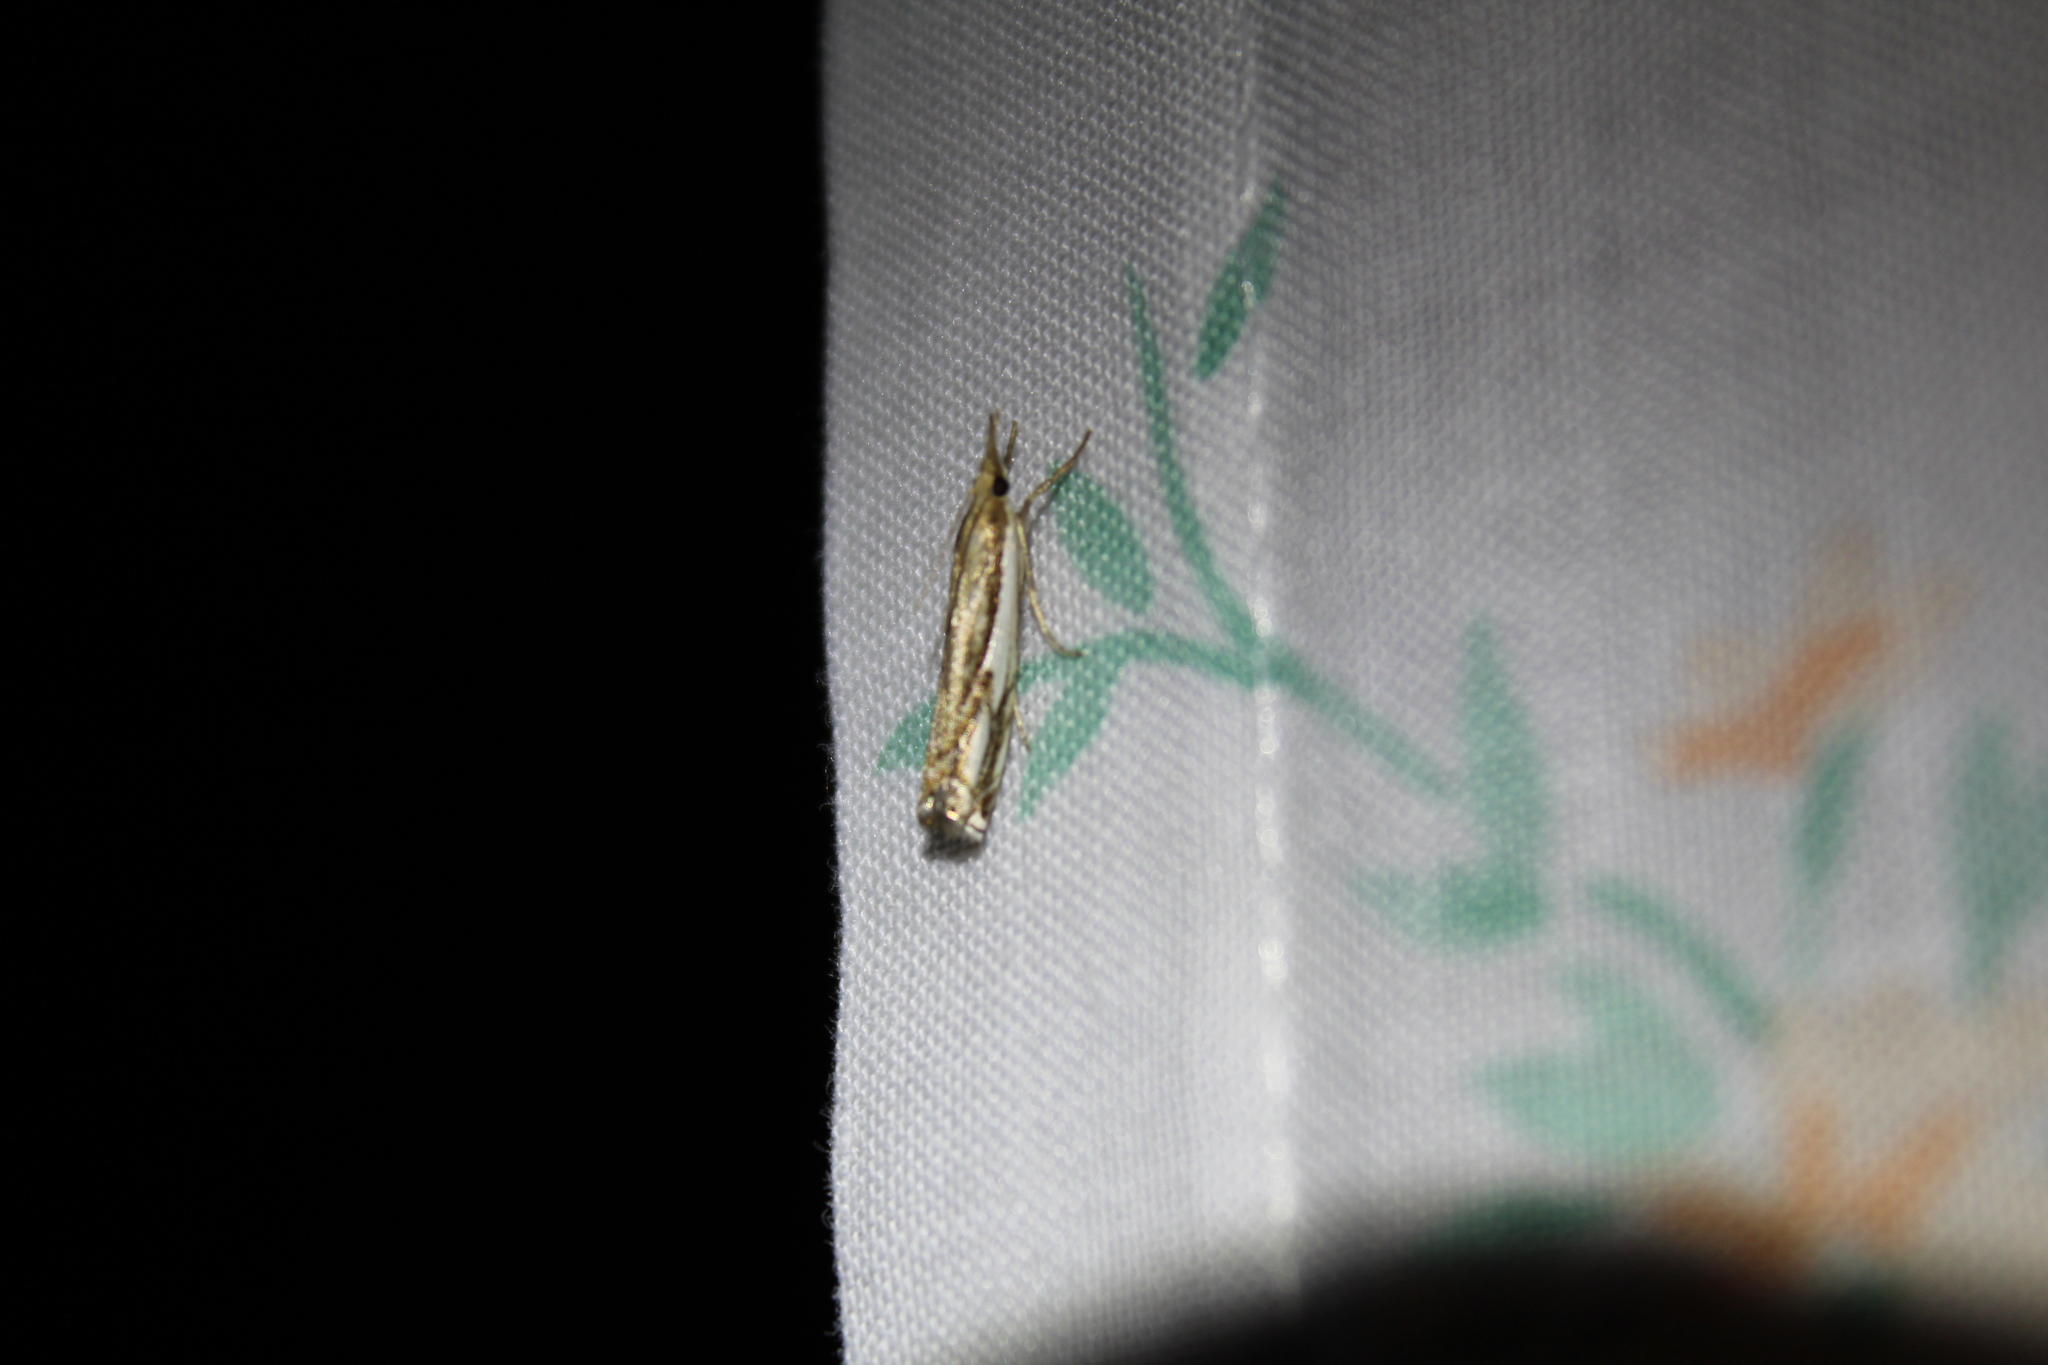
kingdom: Animalia
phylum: Arthropoda
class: Insecta
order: Lepidoptera
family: Crambidae
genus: Crambus
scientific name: Crambus agitatellus
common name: Double-banded grass-veneer
